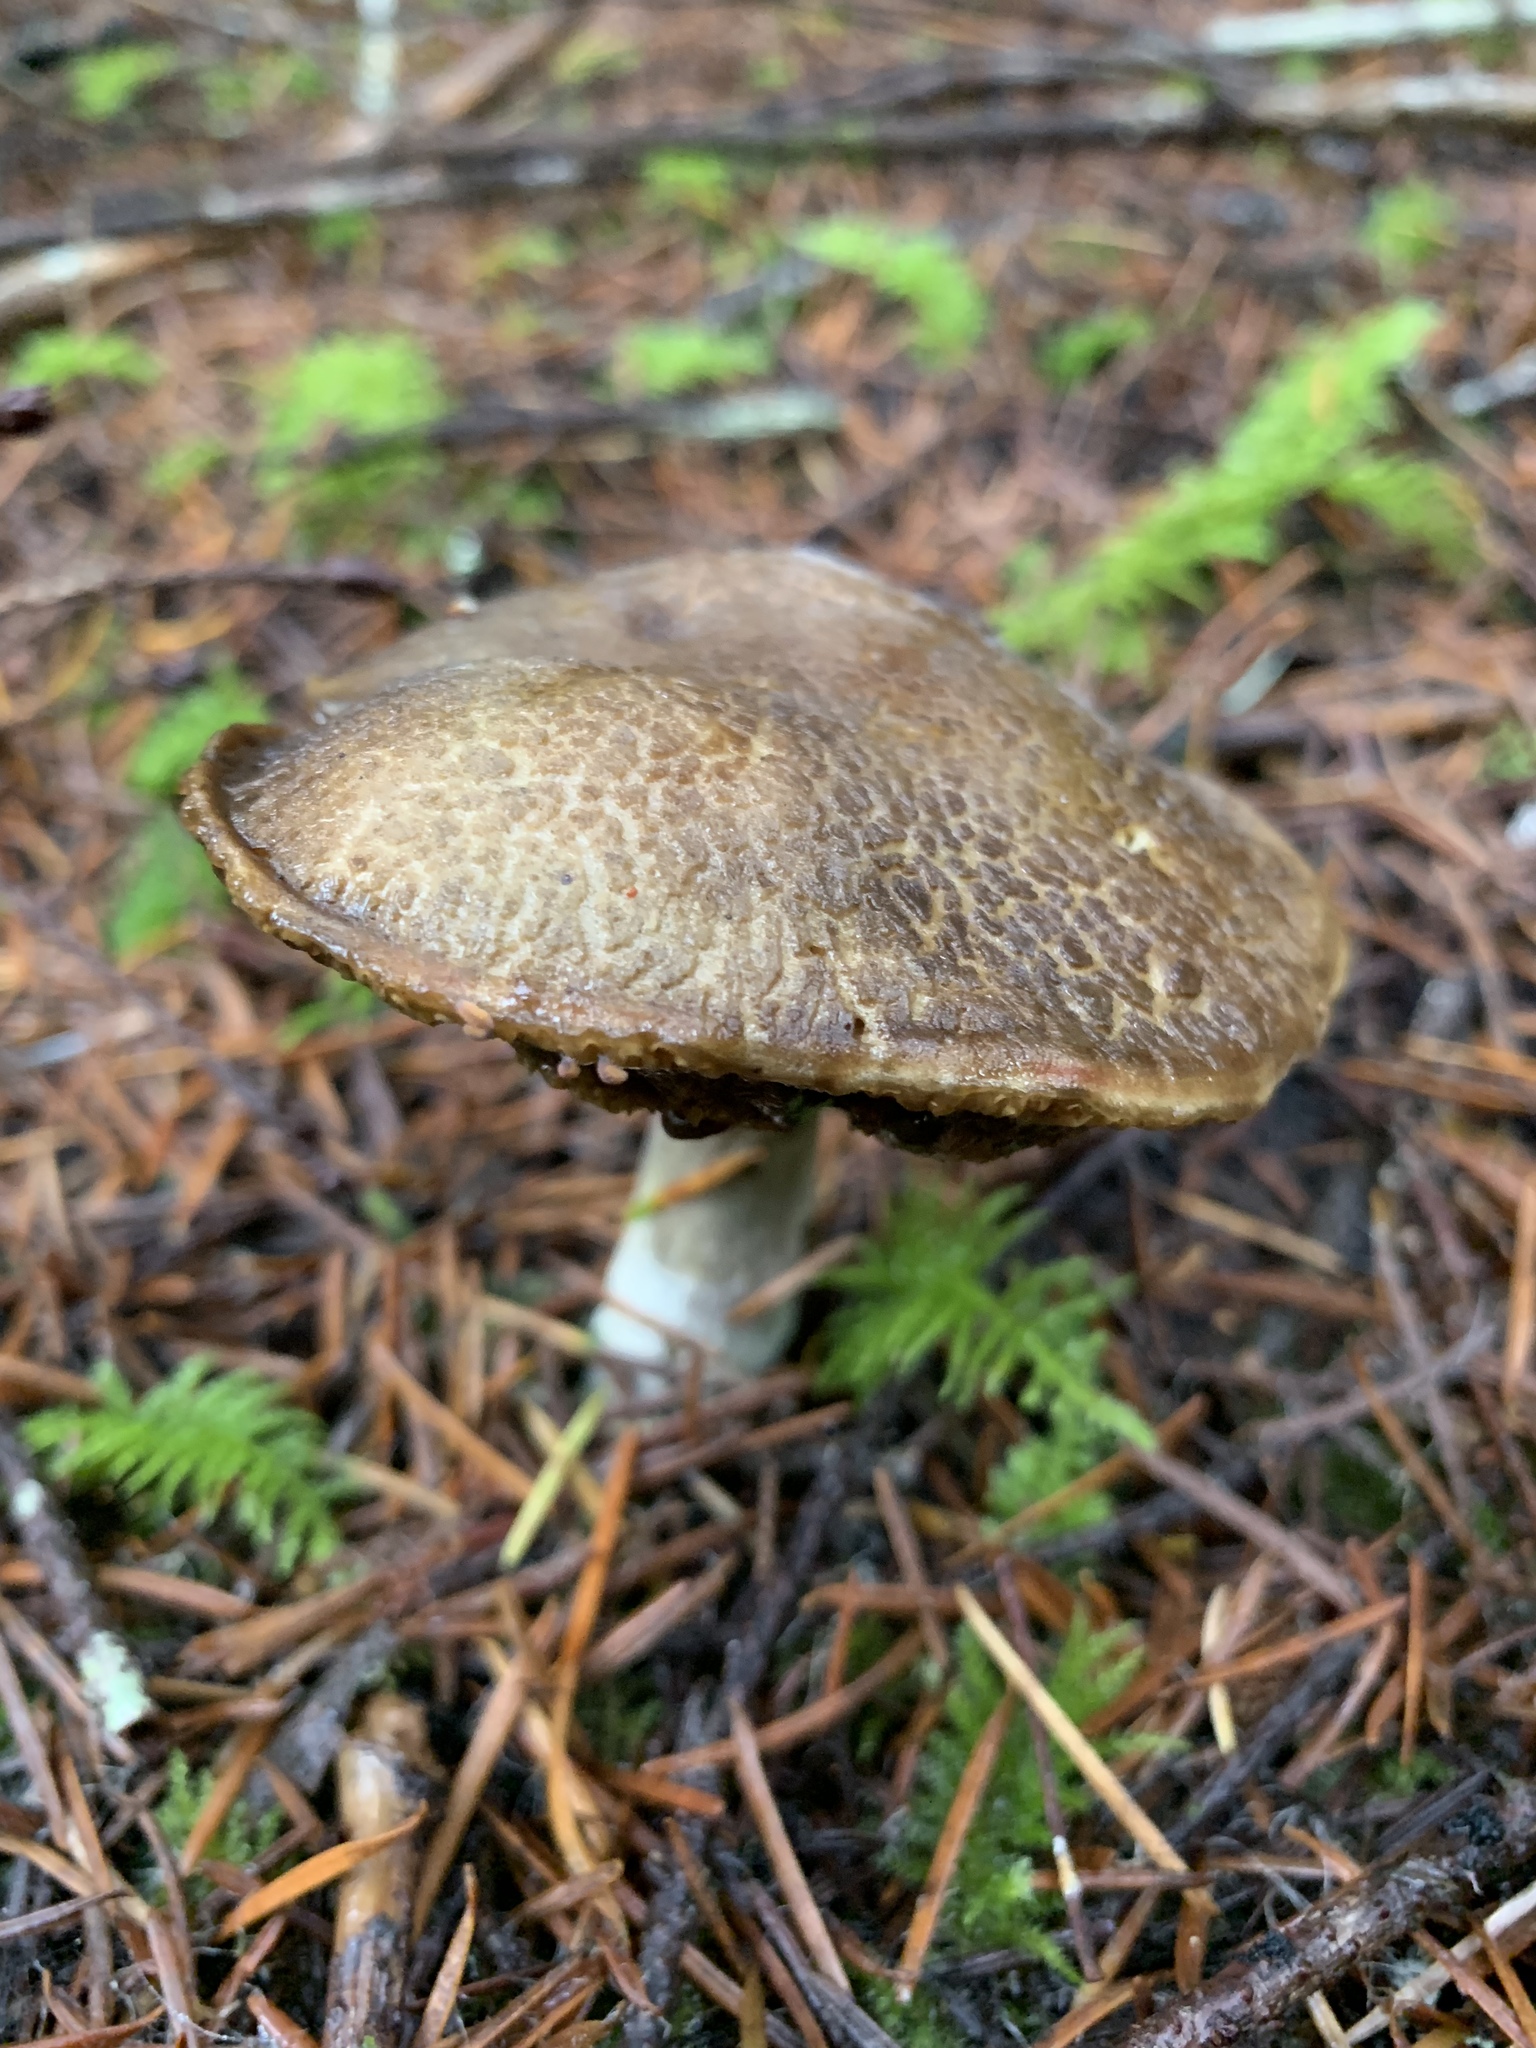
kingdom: Fungi
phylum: Basidiomycota
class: Agaricomycetes
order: Boletales
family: Boletaceae
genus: Xerocomellus
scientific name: Xerocomellus diffractus
